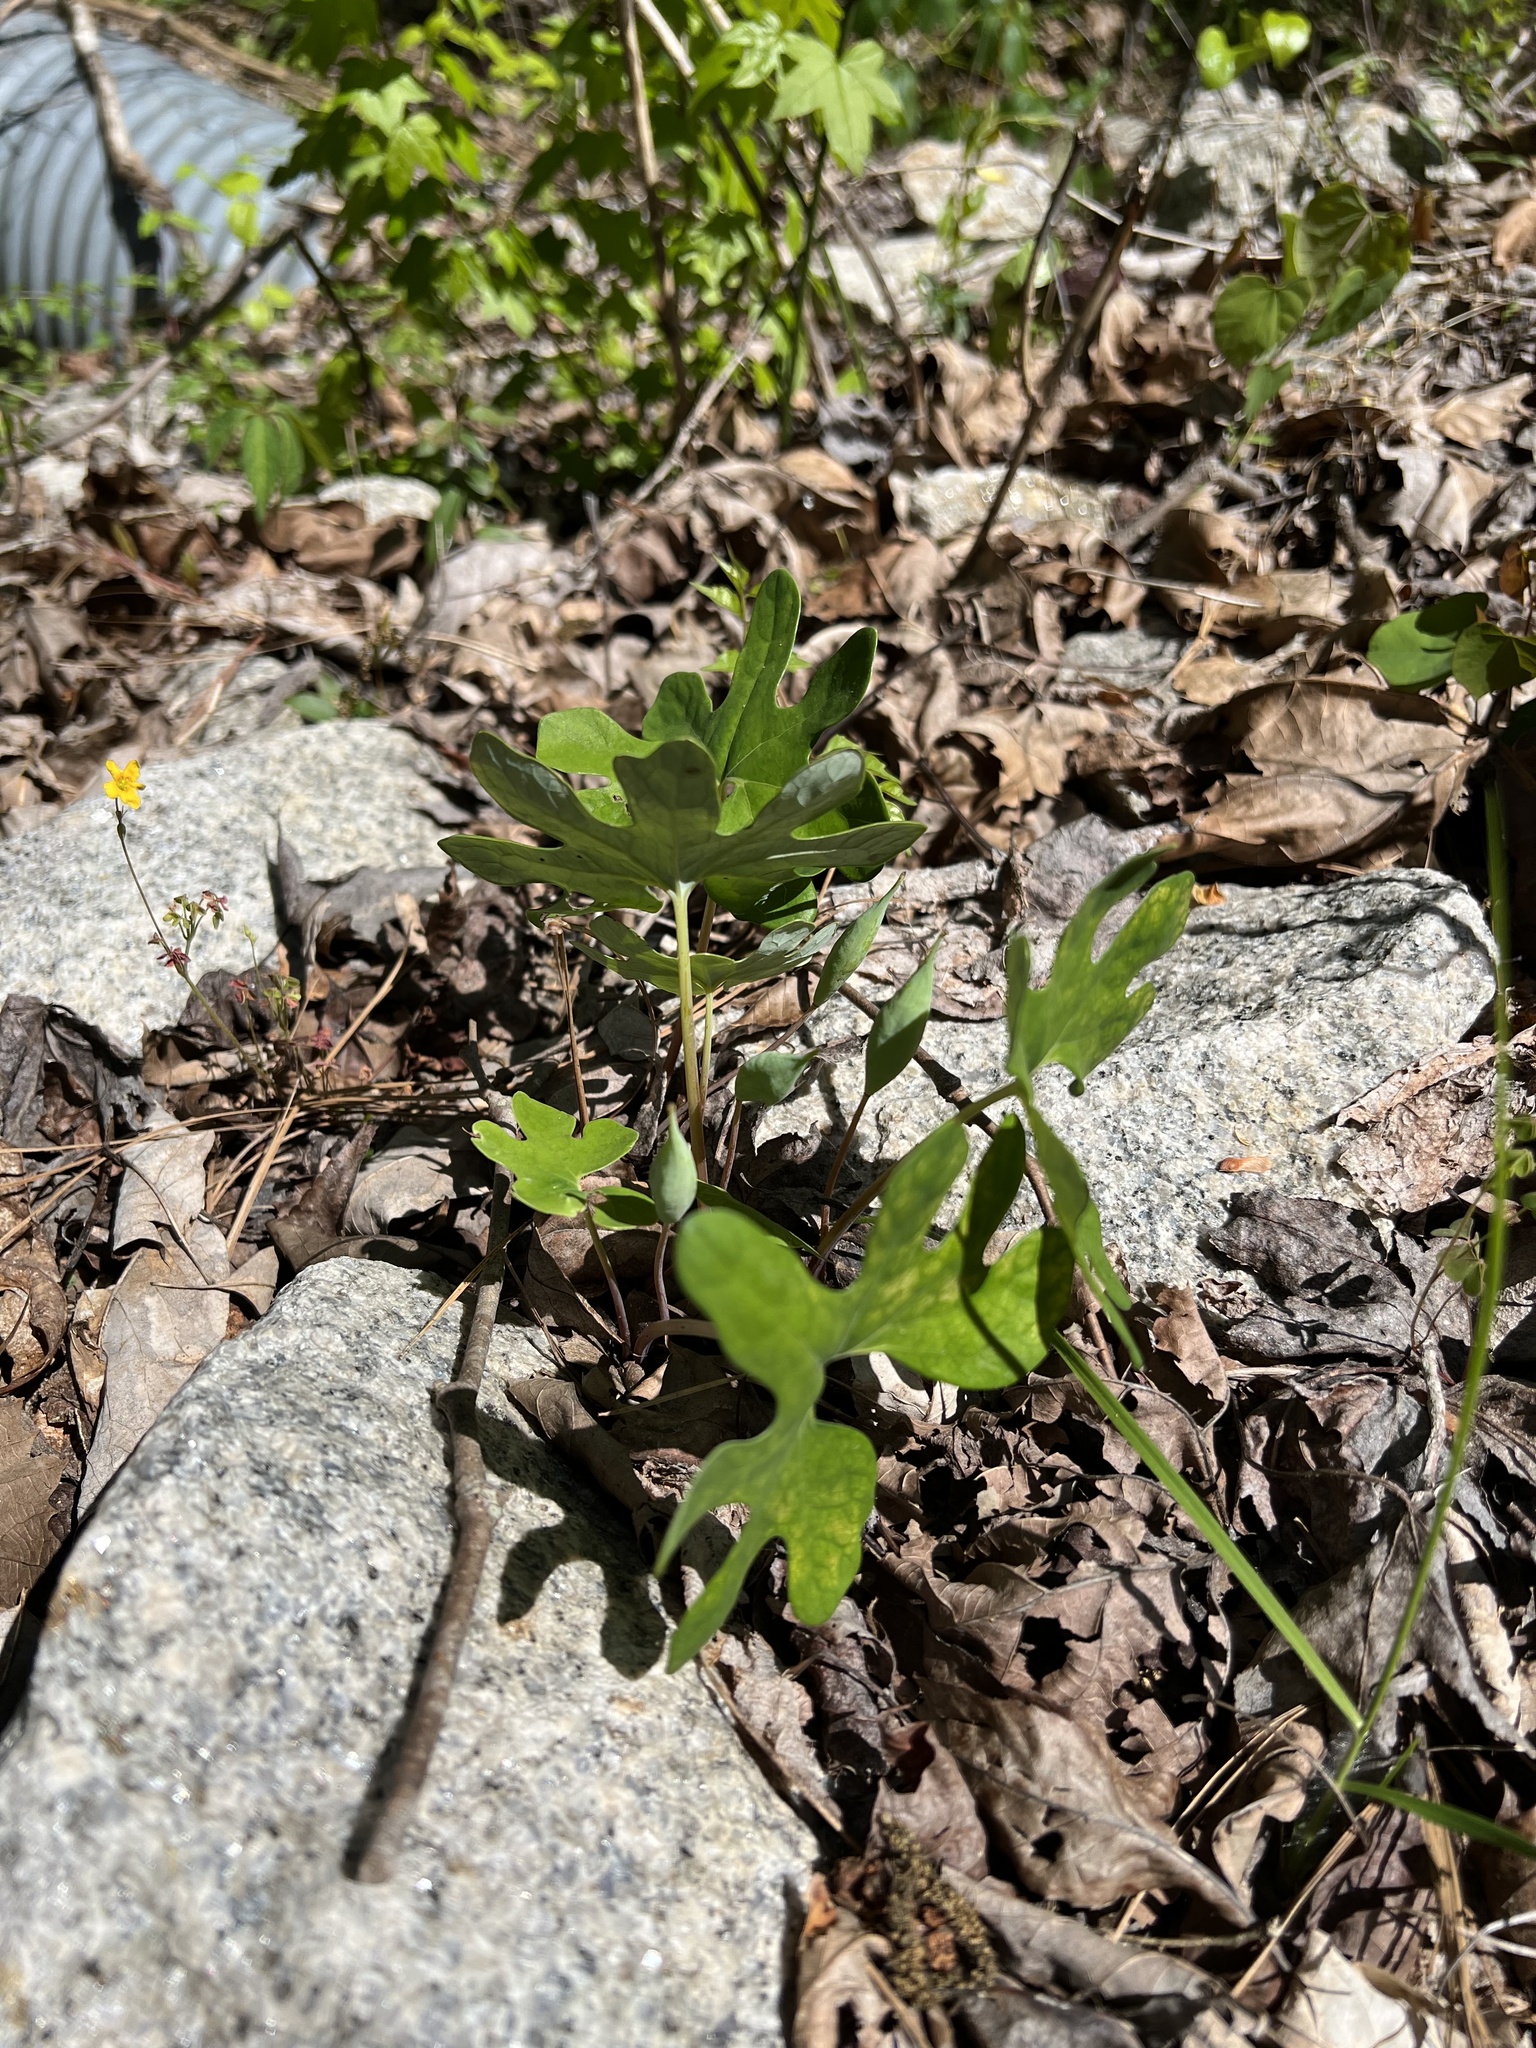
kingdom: Plantae
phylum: Tracheophyta
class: Magnoliopsida
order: Ranunculales
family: Papaveraceae
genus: Sanguinaria
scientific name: Sanguinaria canadensis
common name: Bloodroot
